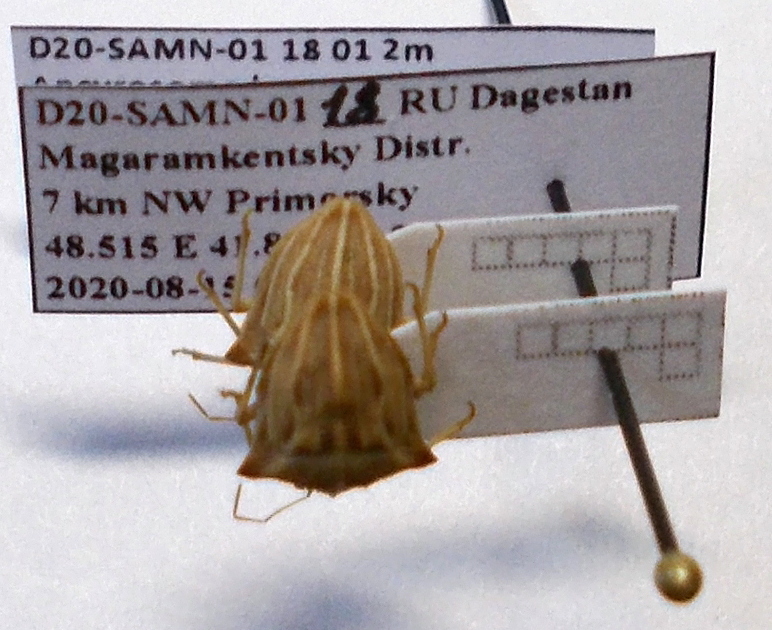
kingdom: Animalia
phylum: Arthropoda
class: Insecta
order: Hemiptera
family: Pentatomidae
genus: Ancyrosoma
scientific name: Ancyrosoma leucogrammes
